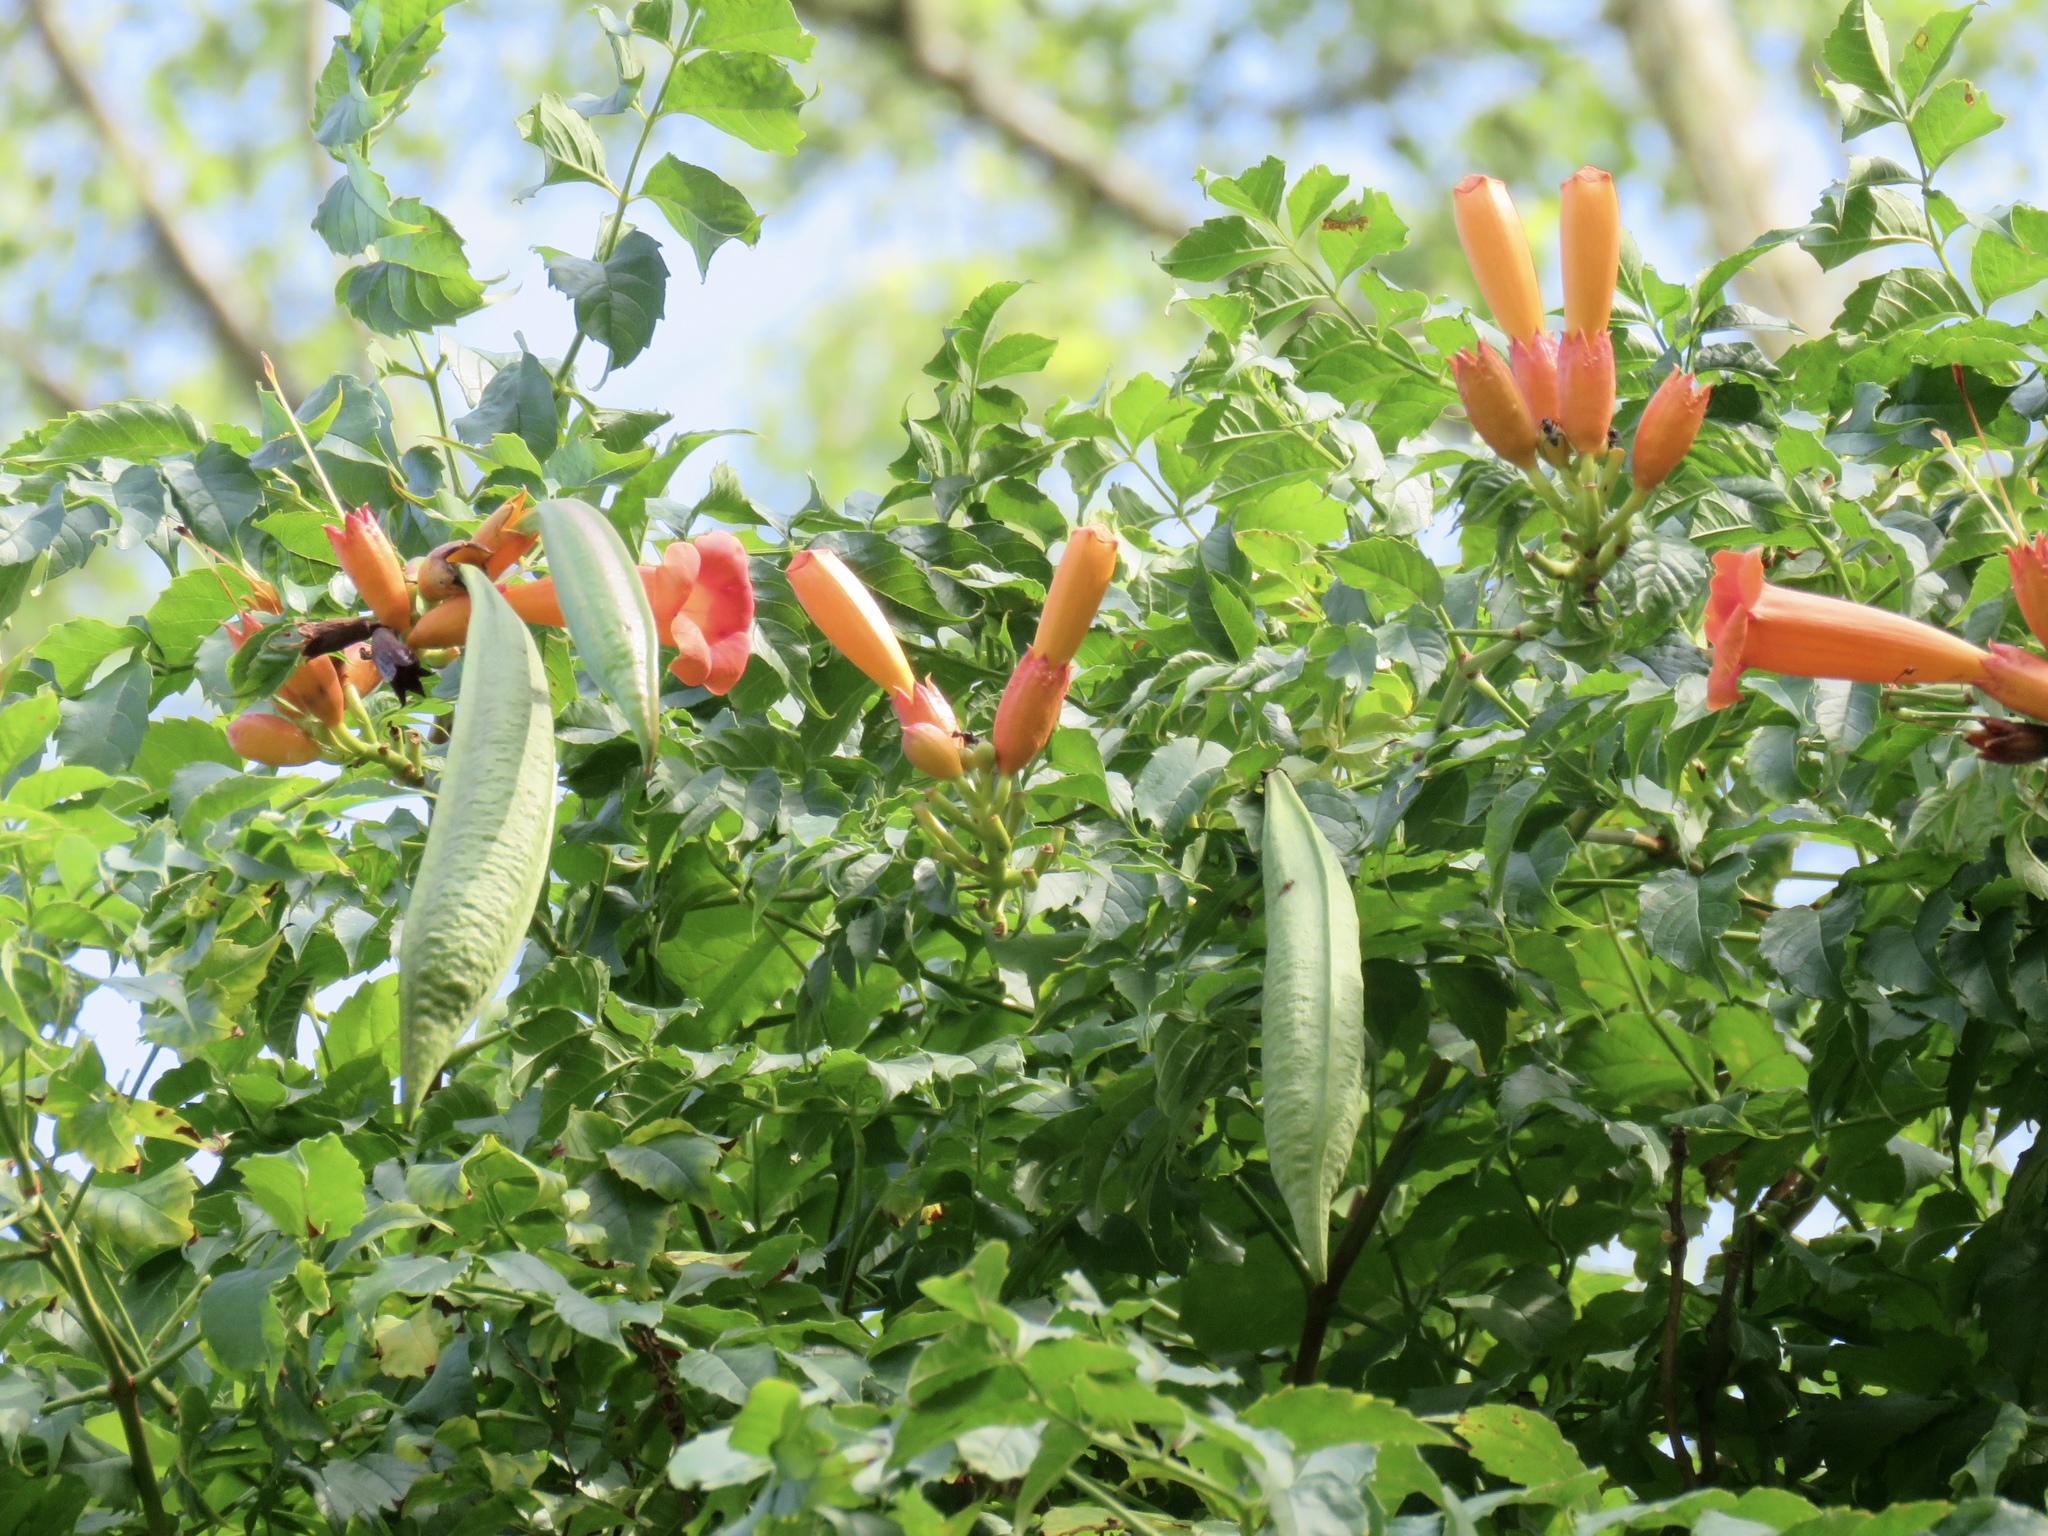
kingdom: Plantae
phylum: Tracheophyta
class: Magnoliopsida
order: Lamiales
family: Bignoniaceae
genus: Campsis
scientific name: Campsis radicans
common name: Trumpet-creeper
